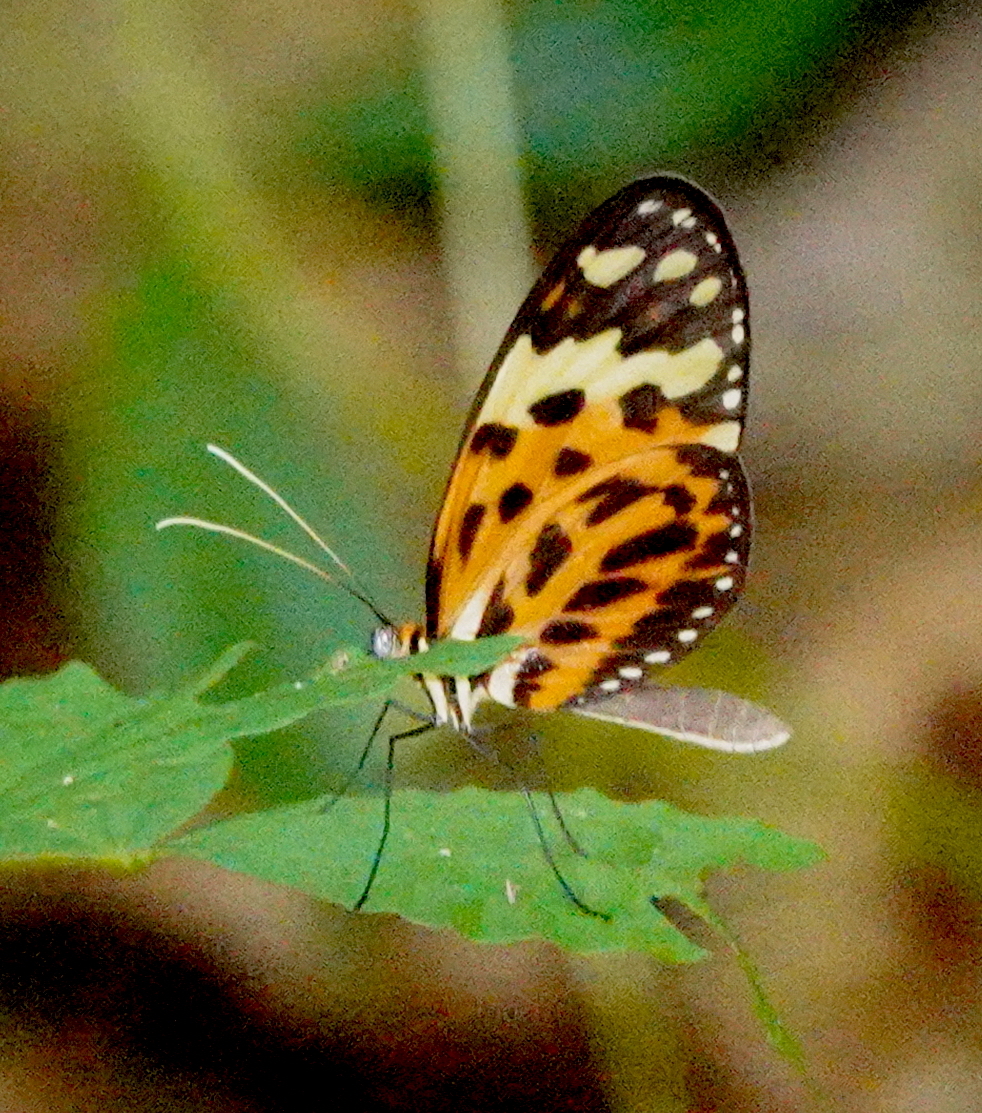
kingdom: Animalia
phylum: Arthropoda
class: Insecta
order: Lepidoptera
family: Nymphalidae
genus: Melinaea
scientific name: Melinaea mneme
